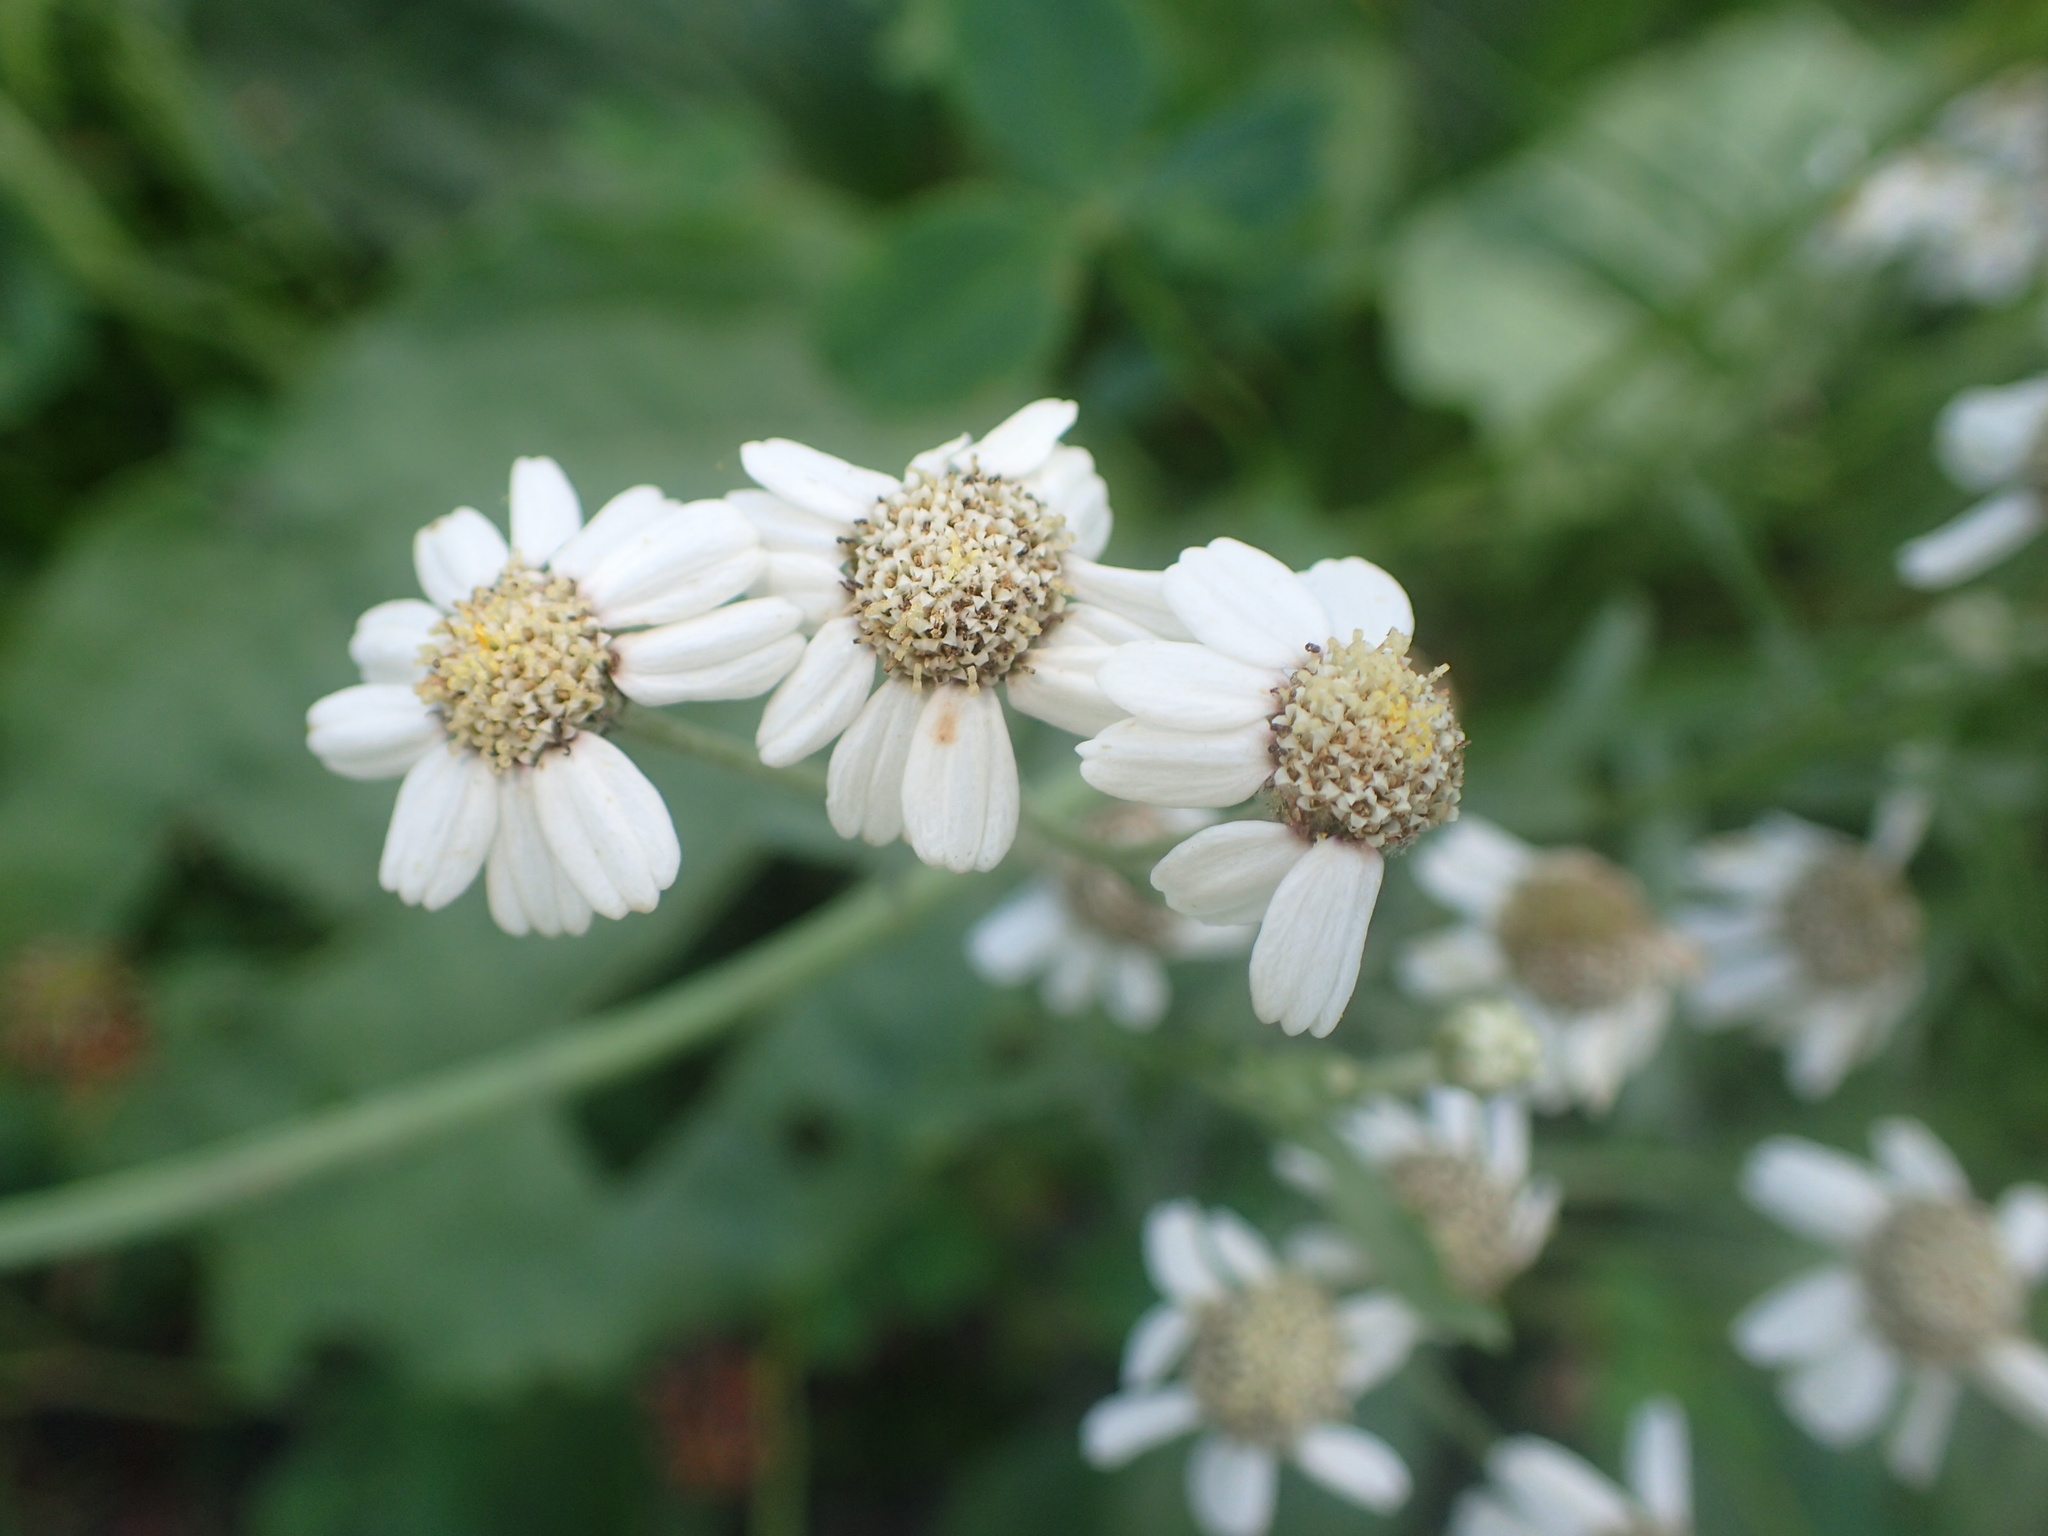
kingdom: Plantae
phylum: Tracheophyta
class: Magnoliopsida
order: Asterales
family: Asteraceae
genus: Achillea
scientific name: Achillea ptarmica
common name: Sneezeweed
